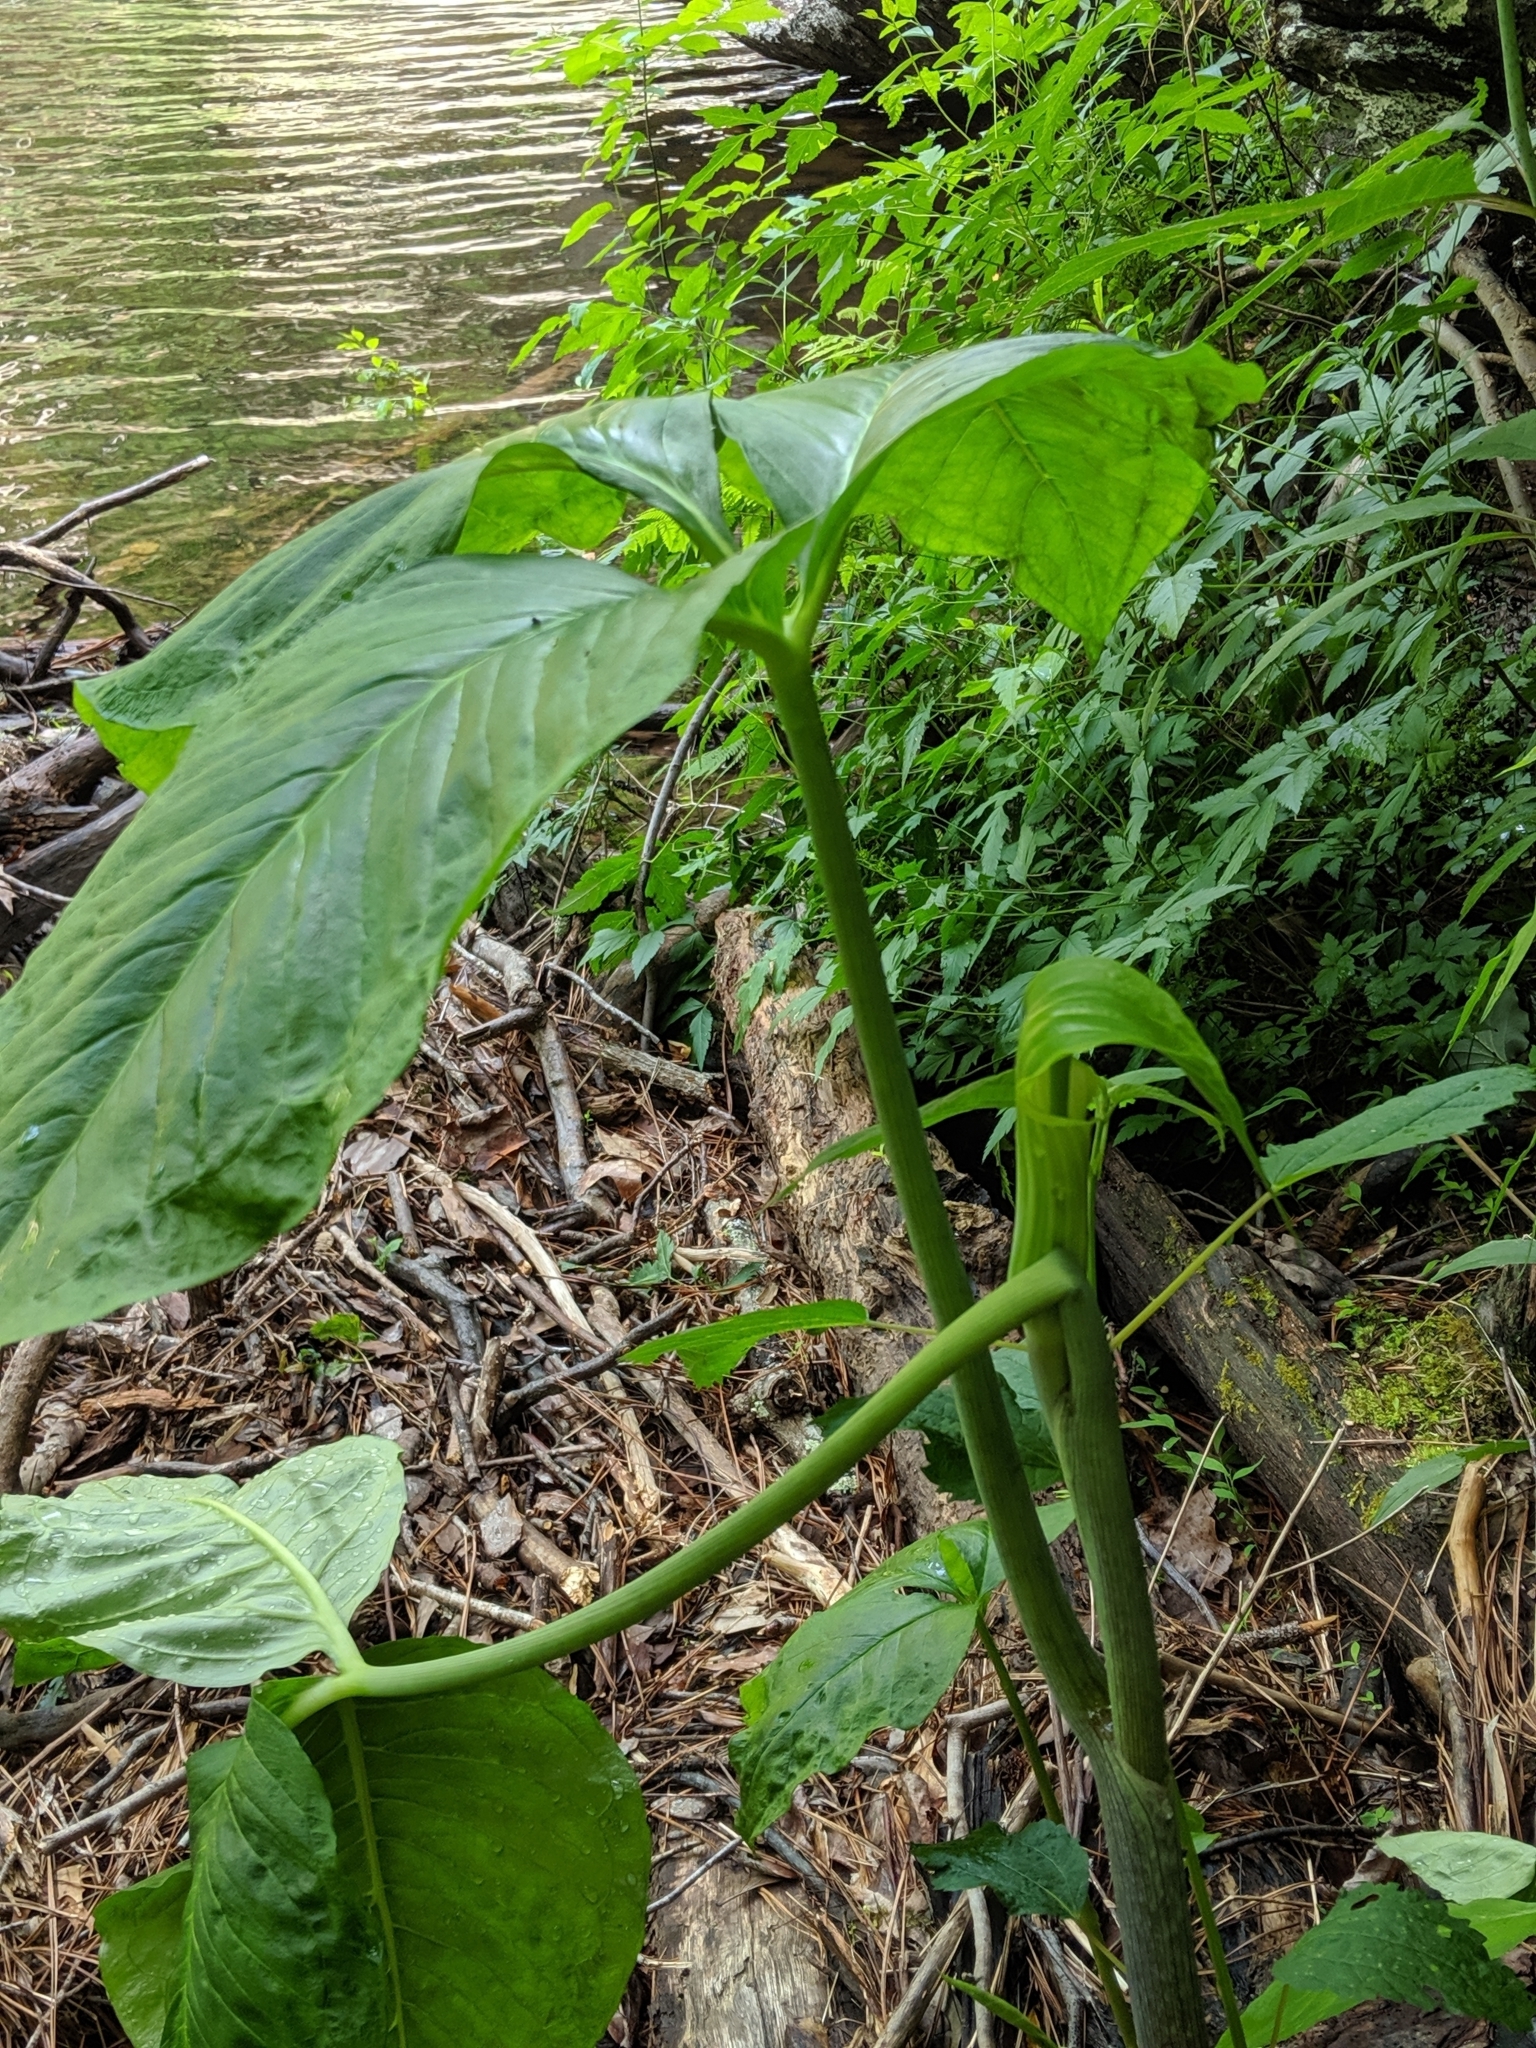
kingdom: Plantae
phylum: Tracheophyta
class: Liliopsida
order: Alismatales
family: Araceae
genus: Arisaema
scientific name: Arisaema triphyllum
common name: Jack-in-the-pulpit
